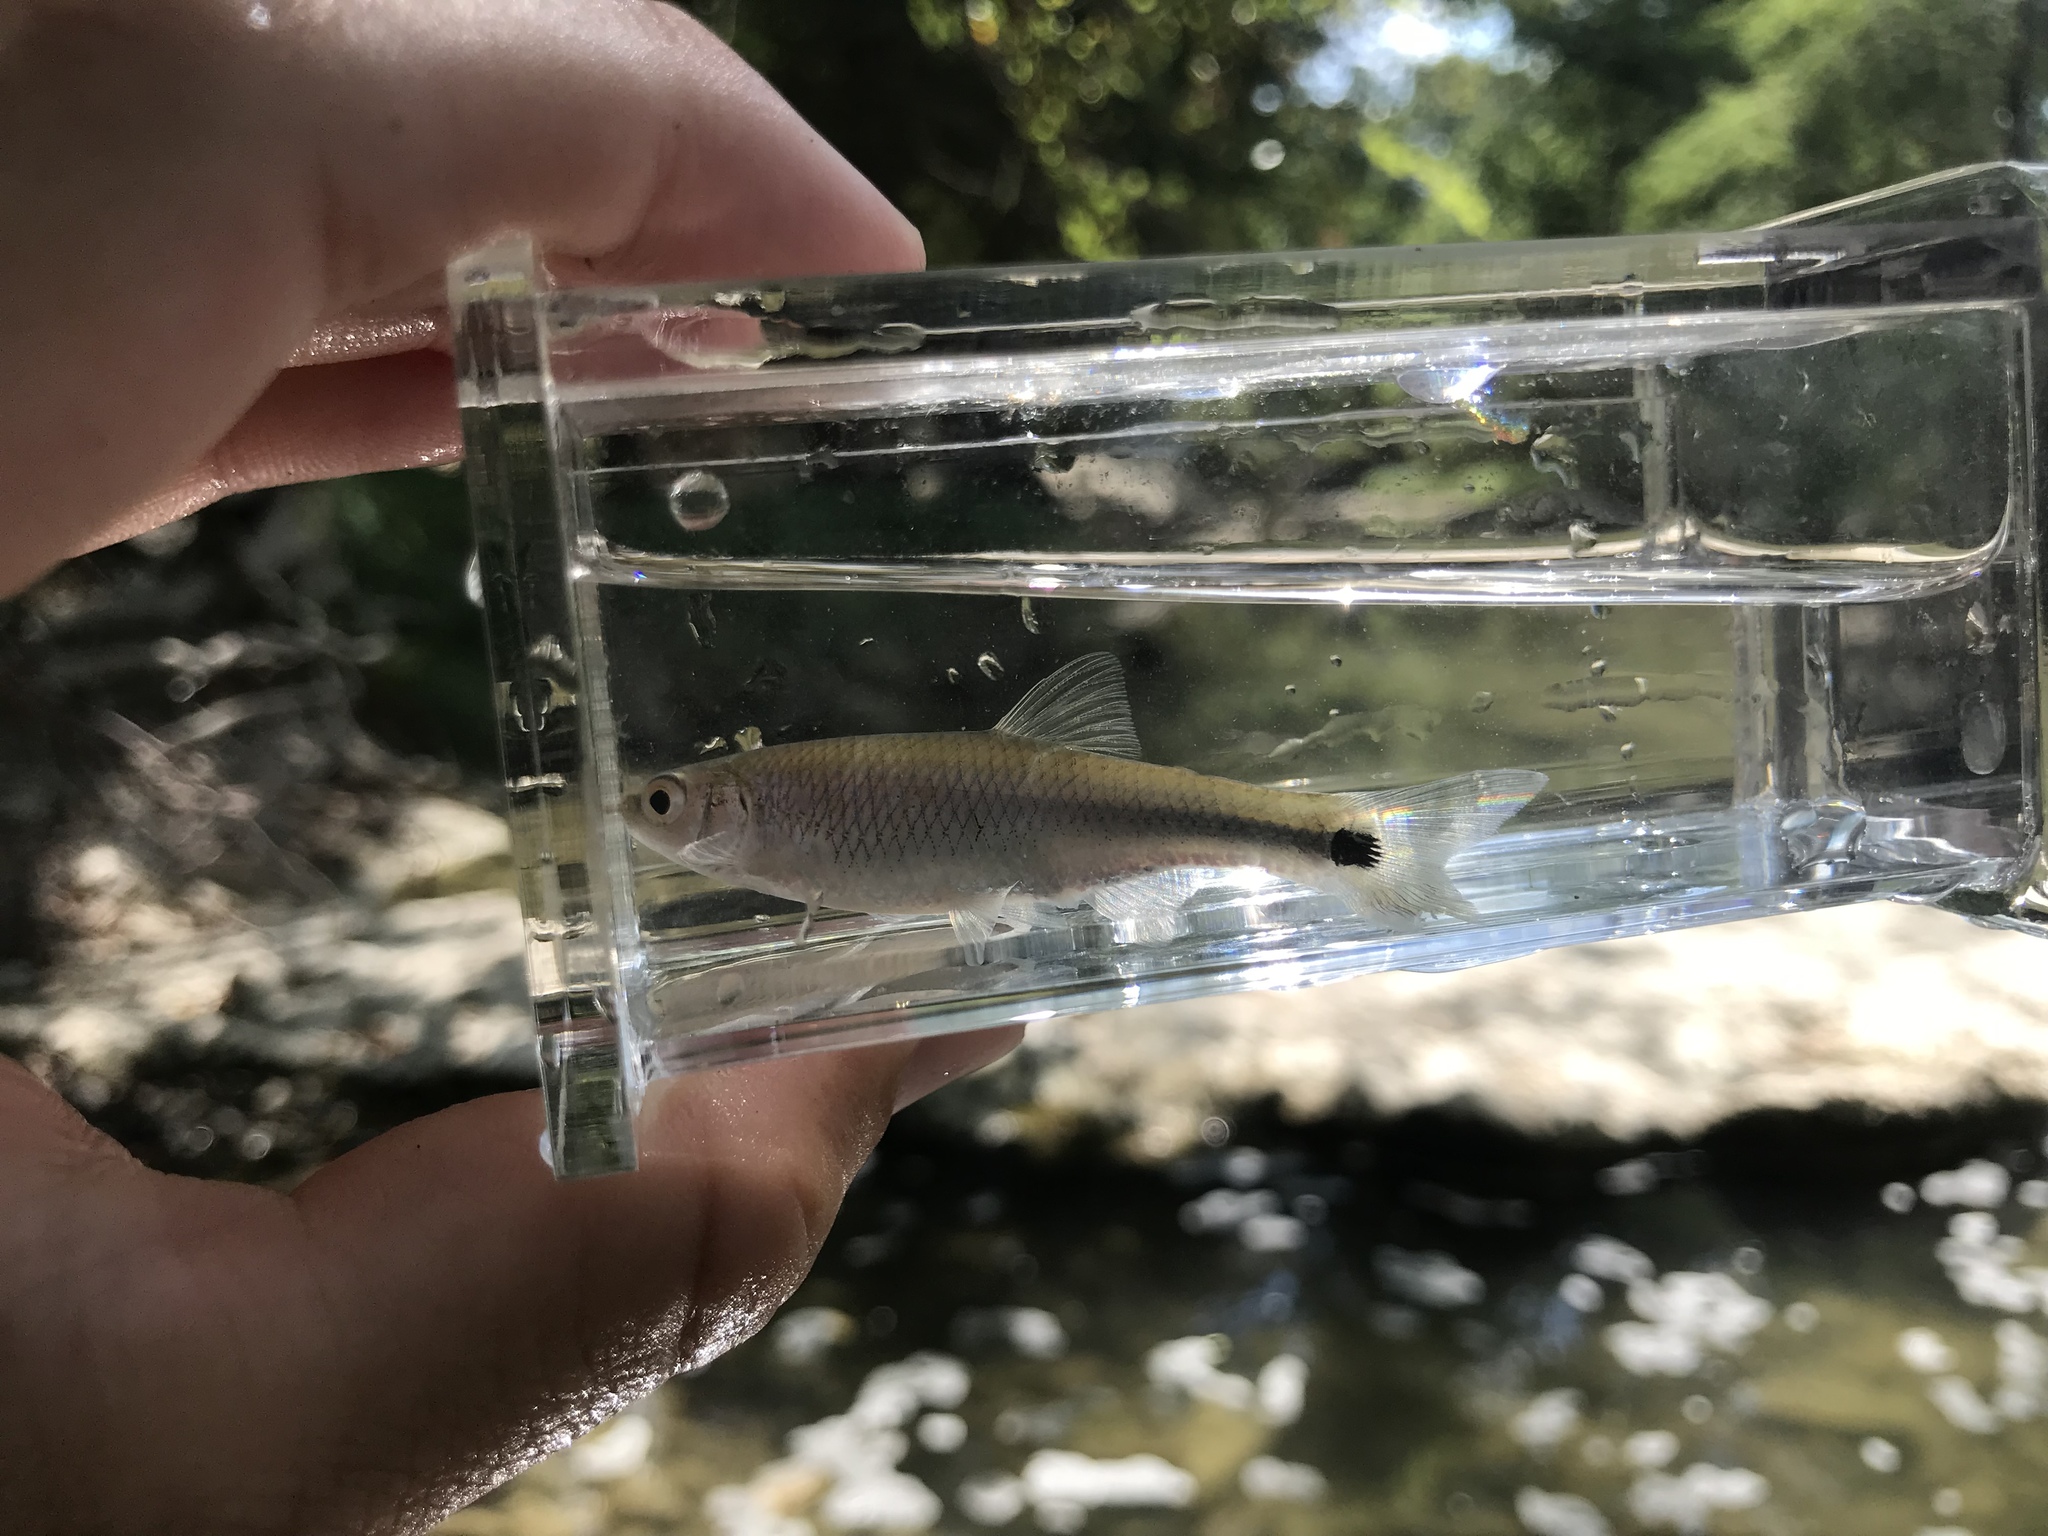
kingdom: Animalia
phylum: Chordata
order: Cypriniformes
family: Cyprinidae
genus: Cyprinella
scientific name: Cyprinella venusta
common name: Blacktail shiner
